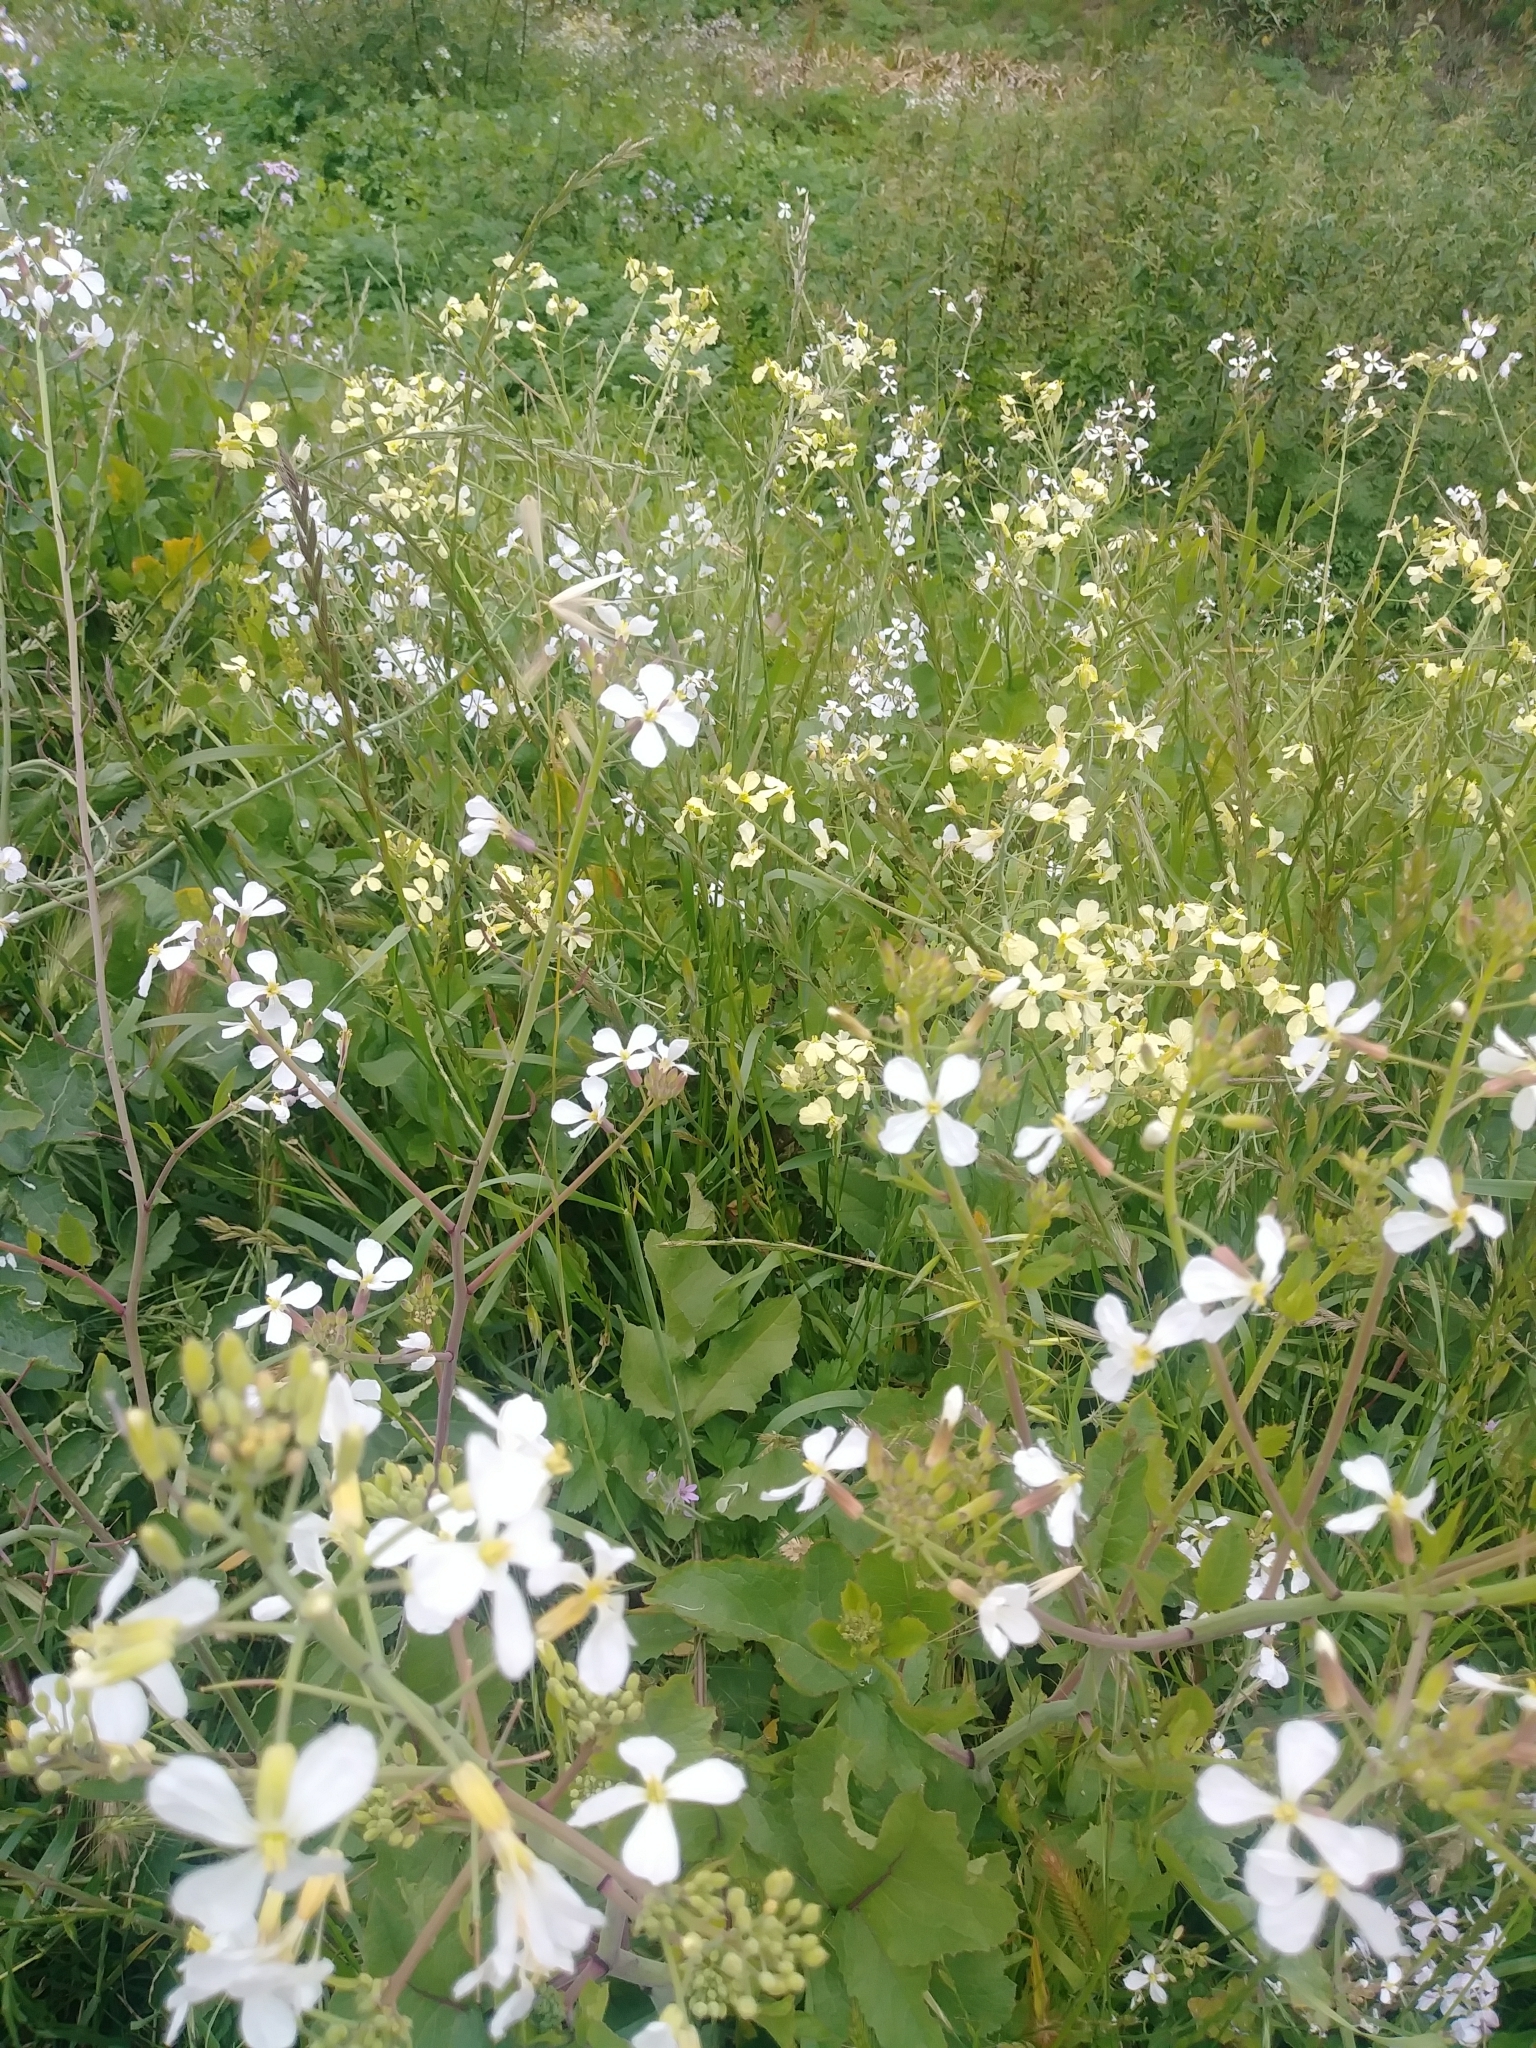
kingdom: Plantae
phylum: Tracheophyta
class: Magnoliopsida
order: Brassicales
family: Brassicaceae
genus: Raphanus
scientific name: Raphanus sativus
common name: Cultivated radish
